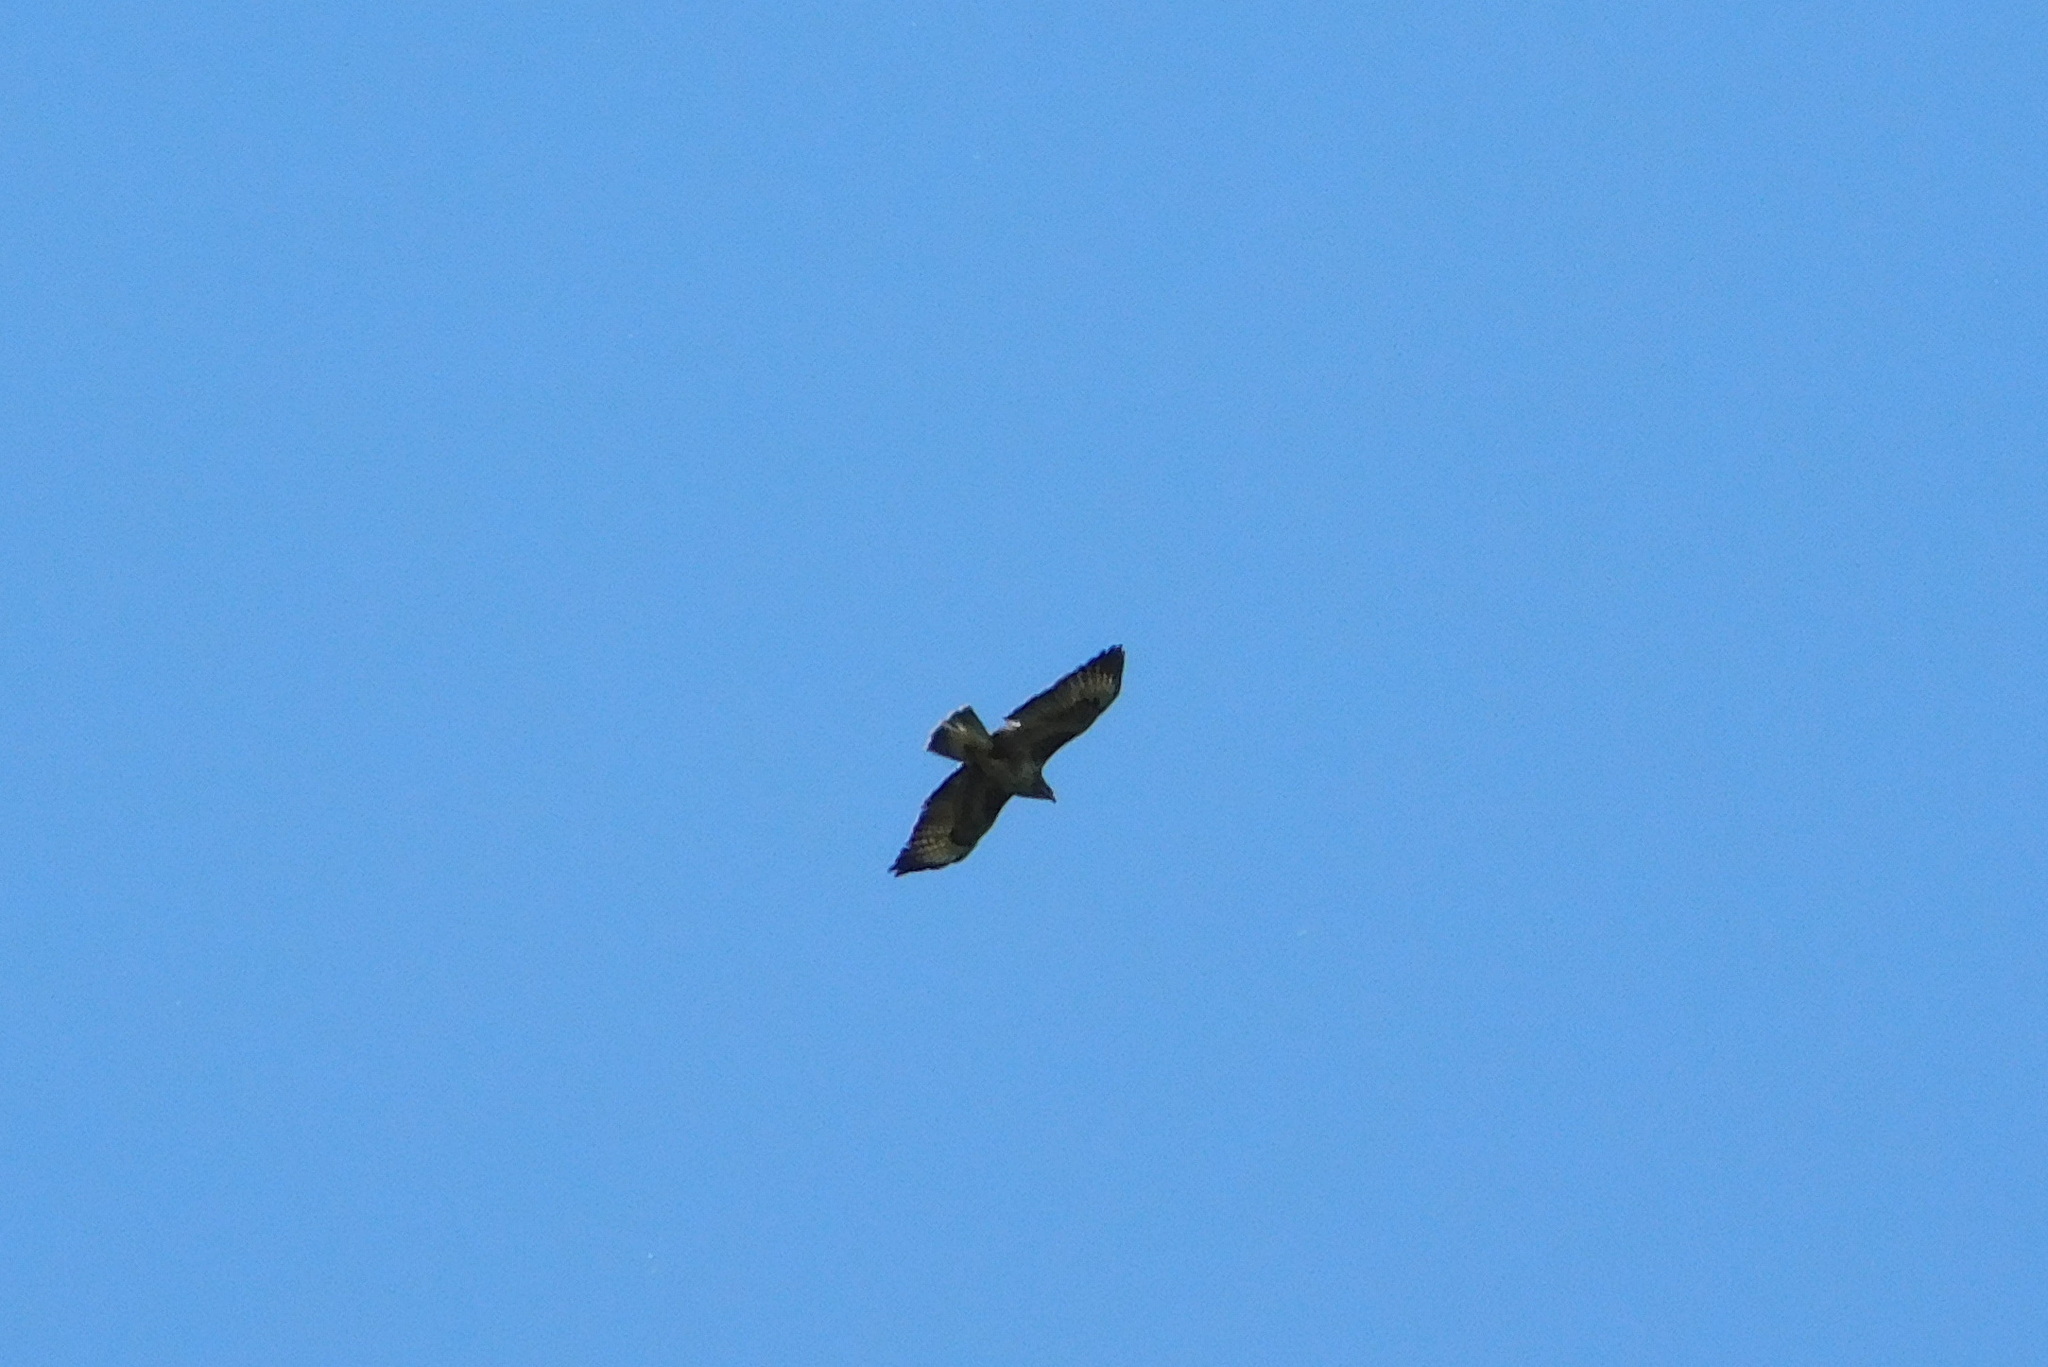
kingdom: Animalia
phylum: Chordata
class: Aves
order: Accipitriformes
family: Accipitridae
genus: Buteo
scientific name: Buteo buteo
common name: Common buzzard
